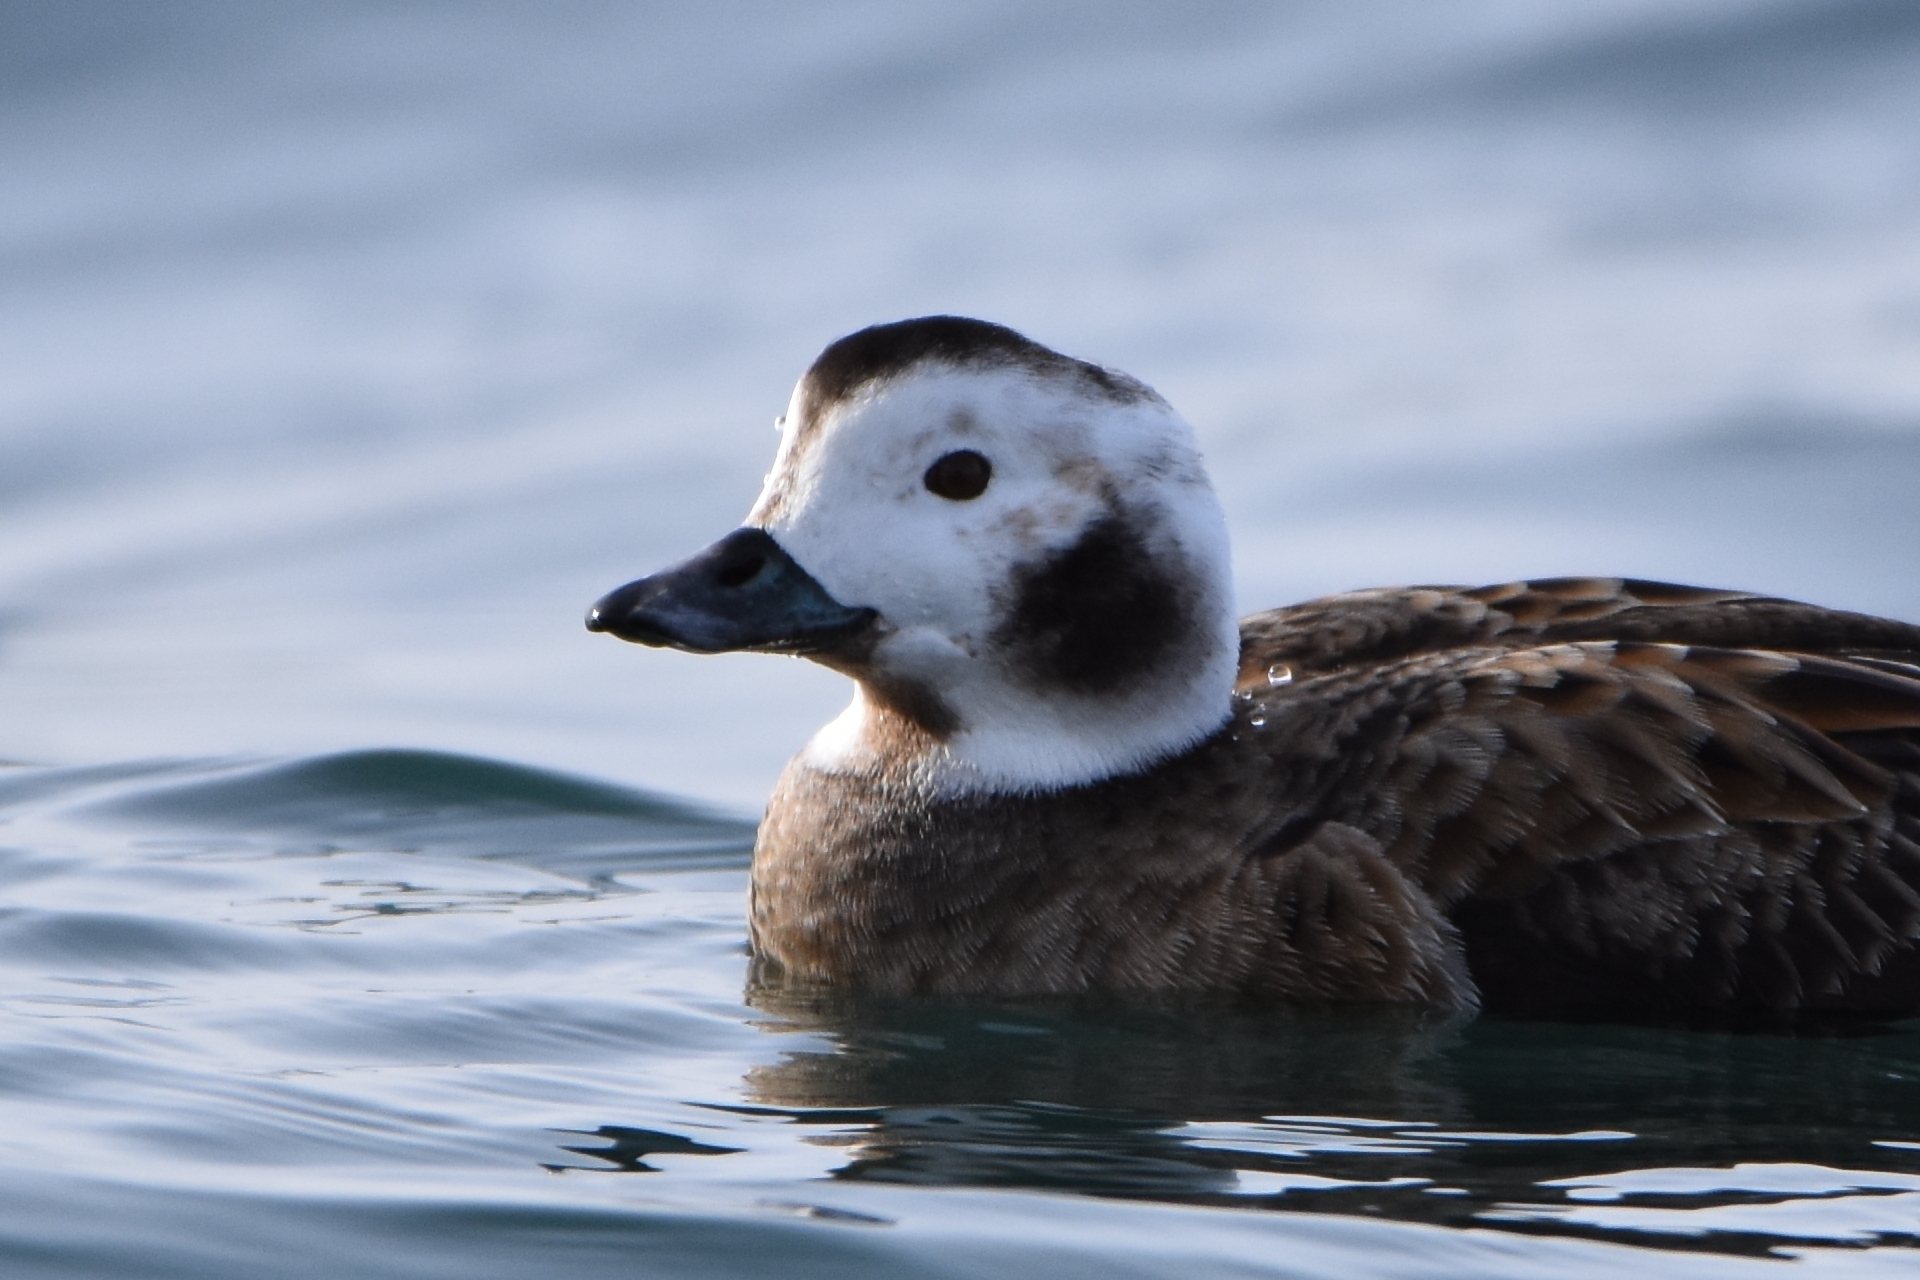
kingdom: Animalia
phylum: Chordata
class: Aves
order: Anseriformes
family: Anatidae
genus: Clangula
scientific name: Clangula hyemalis
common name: Long-tailed duck
